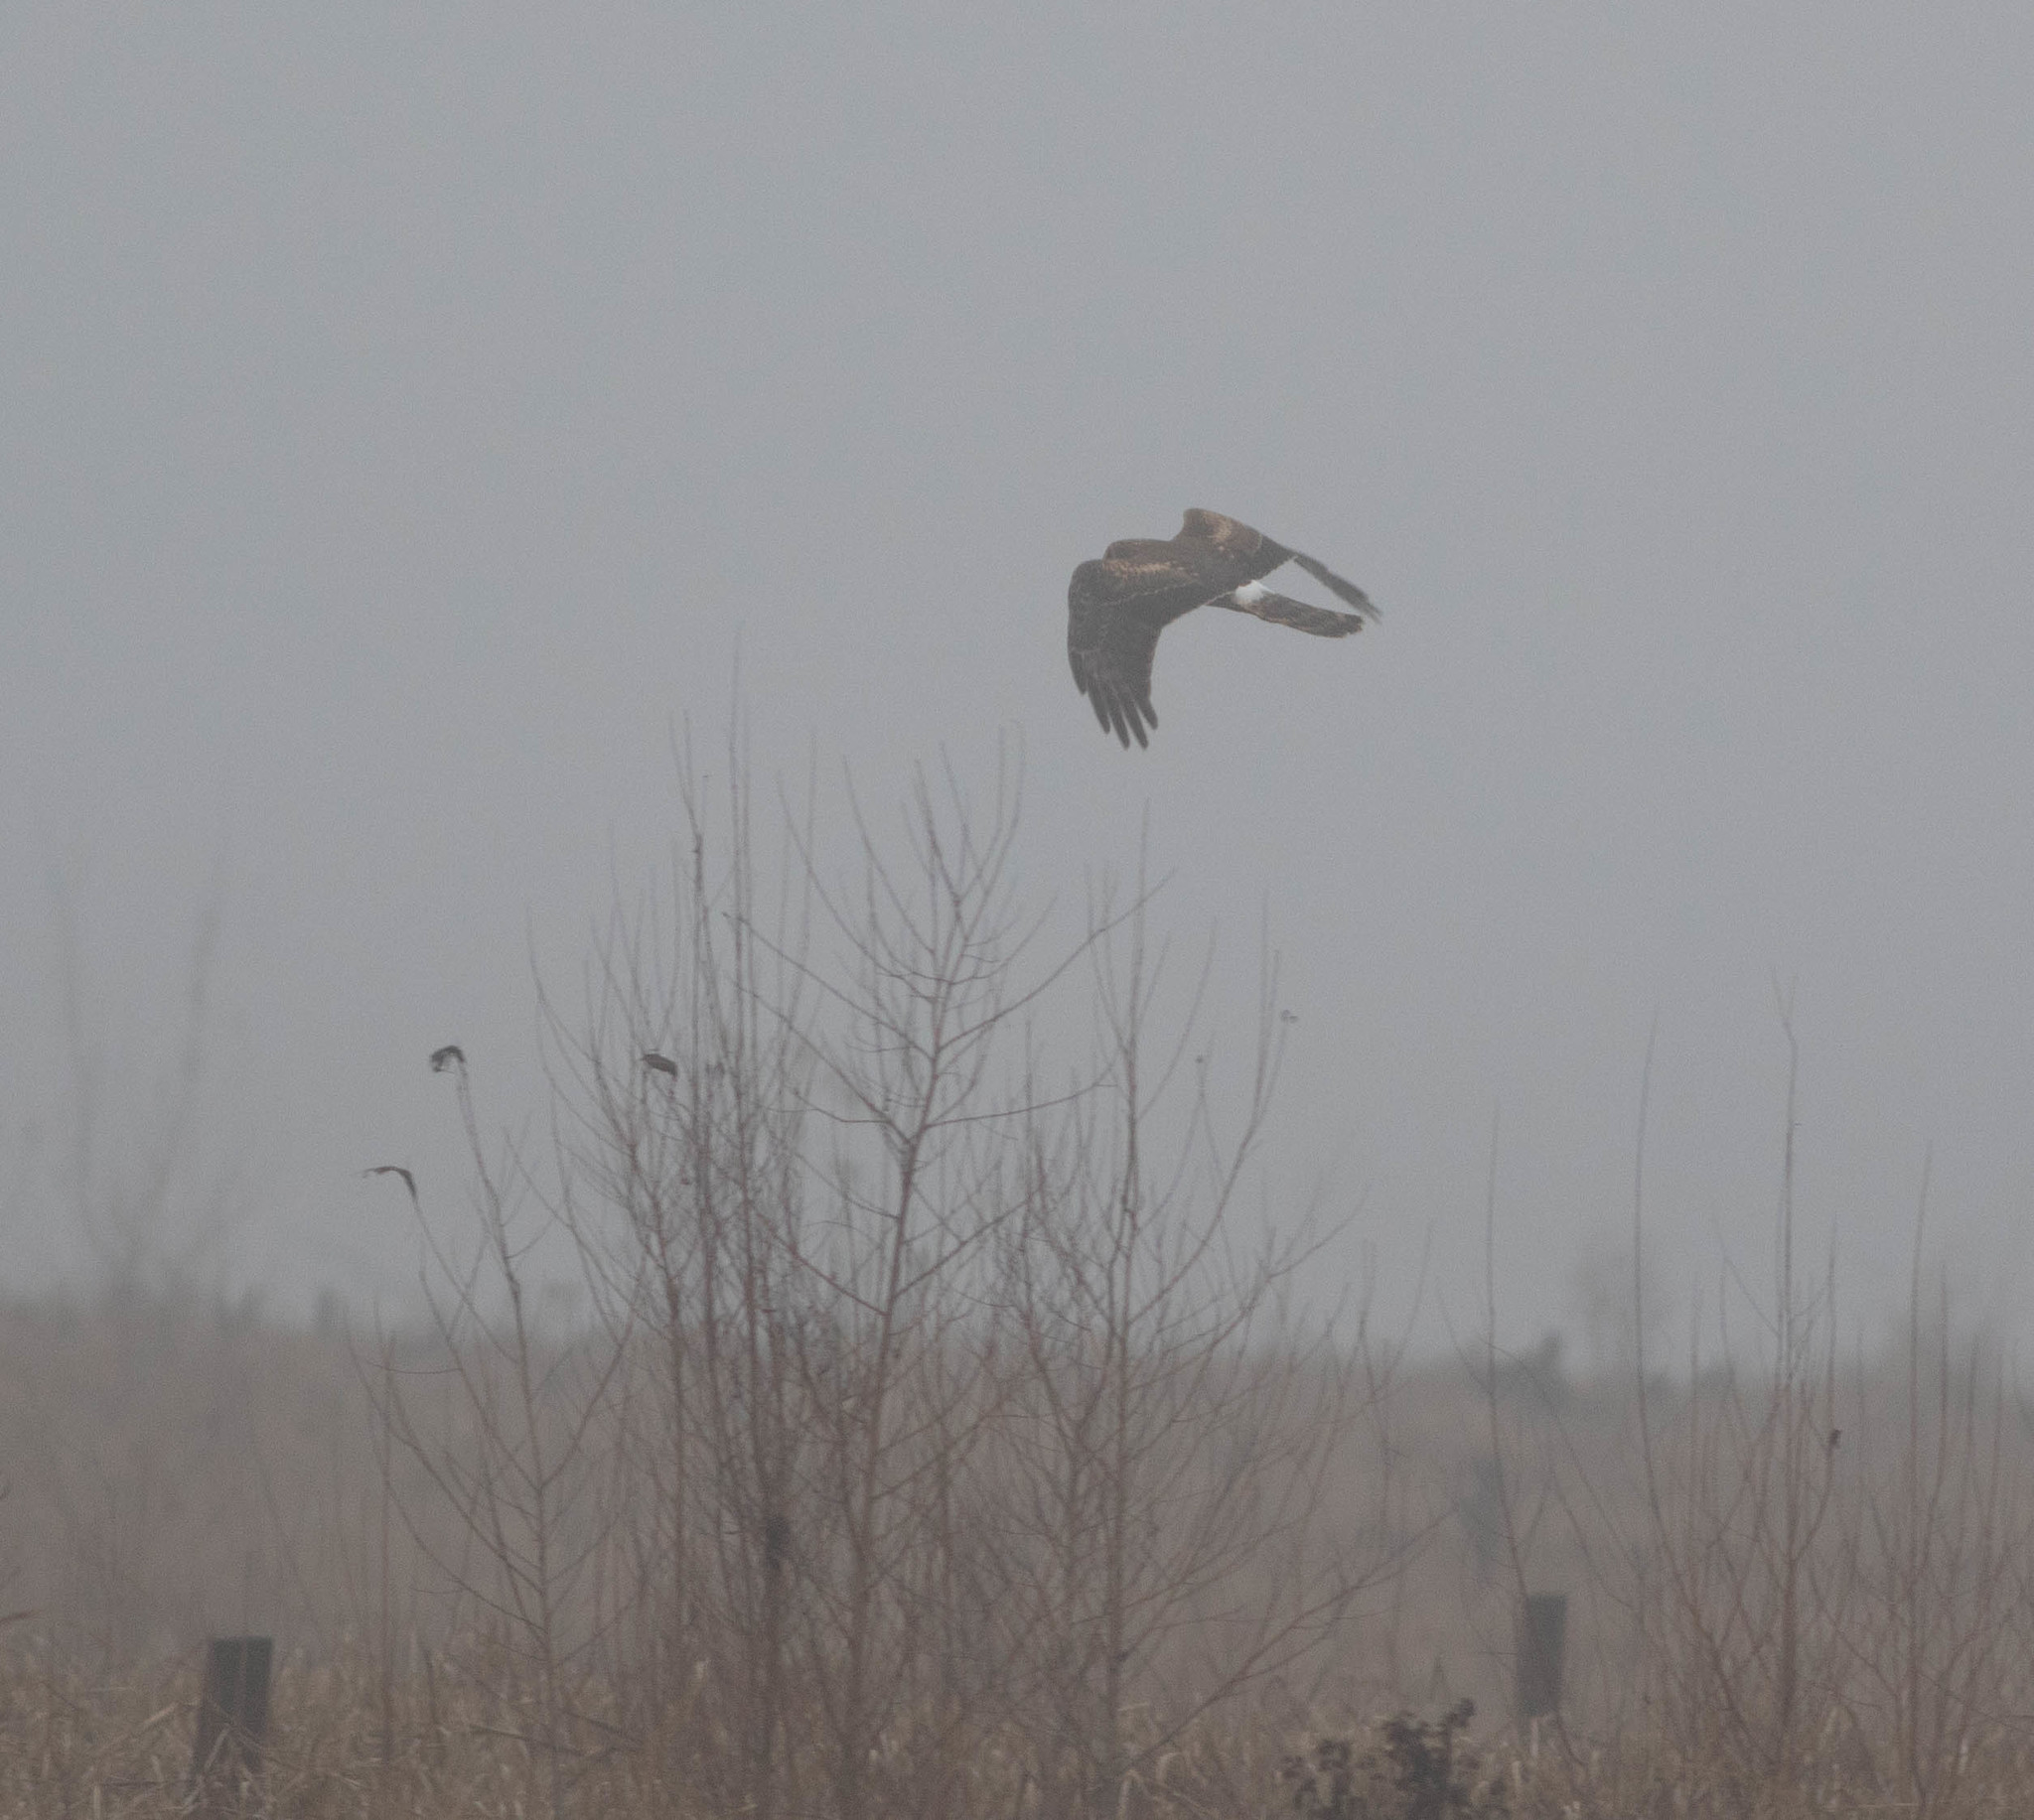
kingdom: Animalia
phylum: Chordata
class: Aves
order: Accipitriformes
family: Accipitridae
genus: Circus
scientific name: Circus cyaneus
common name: Hen harrier
